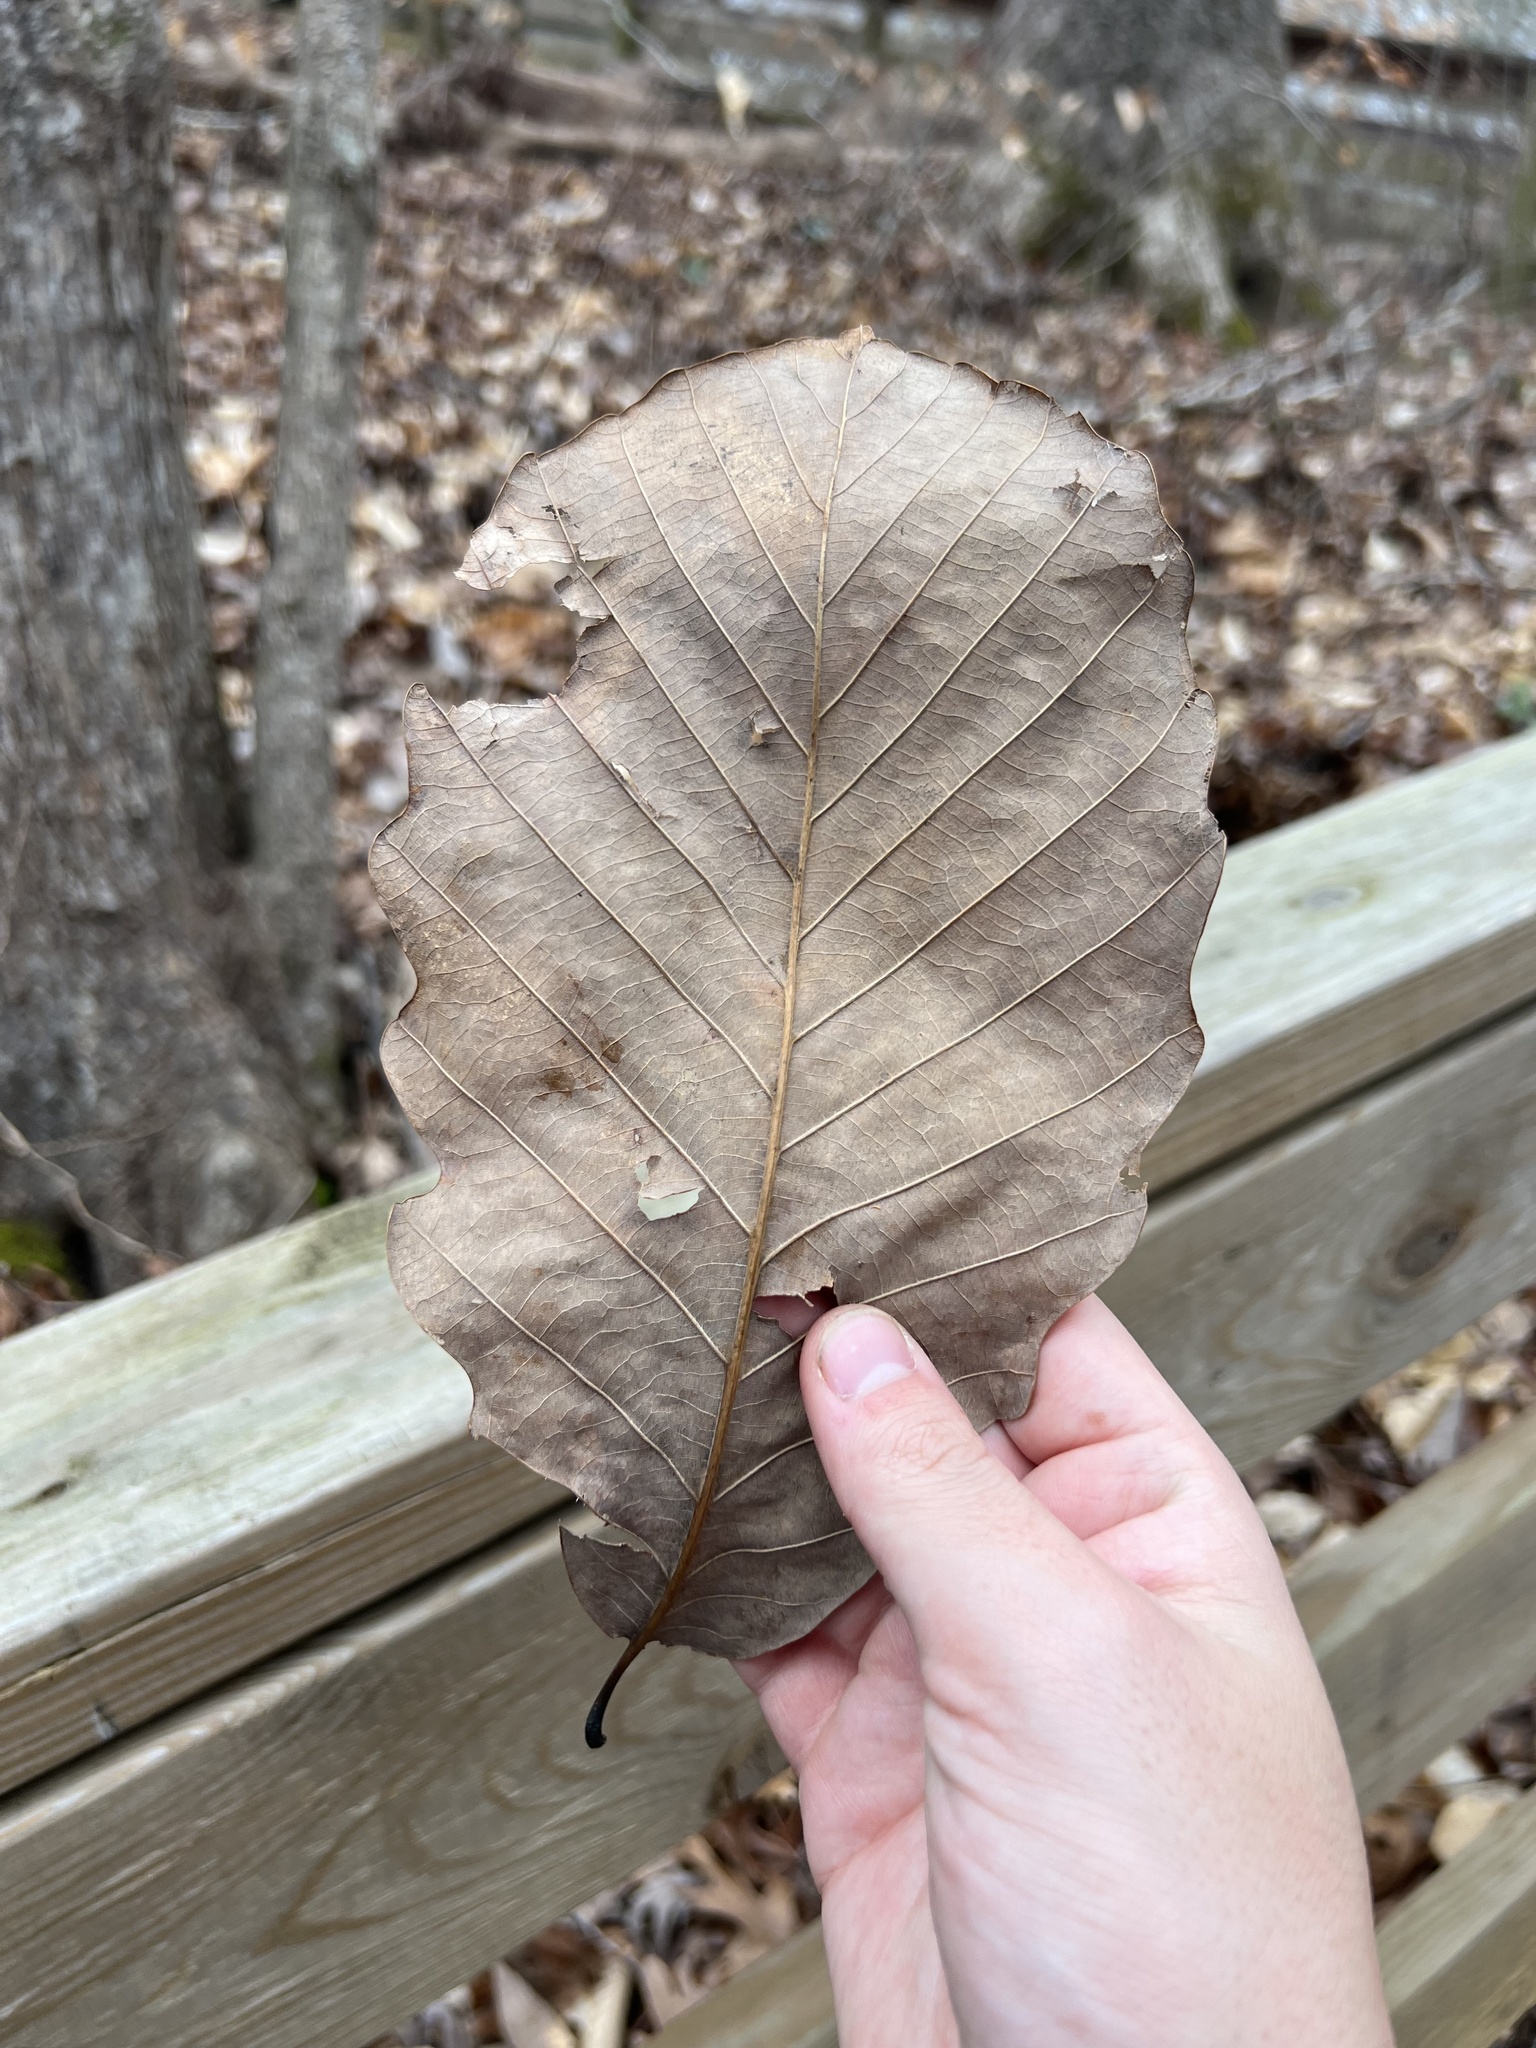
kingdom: Plantae
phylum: Tracheophyta
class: Magnoliopsida
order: Fagales
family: Fagaceae
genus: Quercus
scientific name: Quercus montana
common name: Chestnut oak
